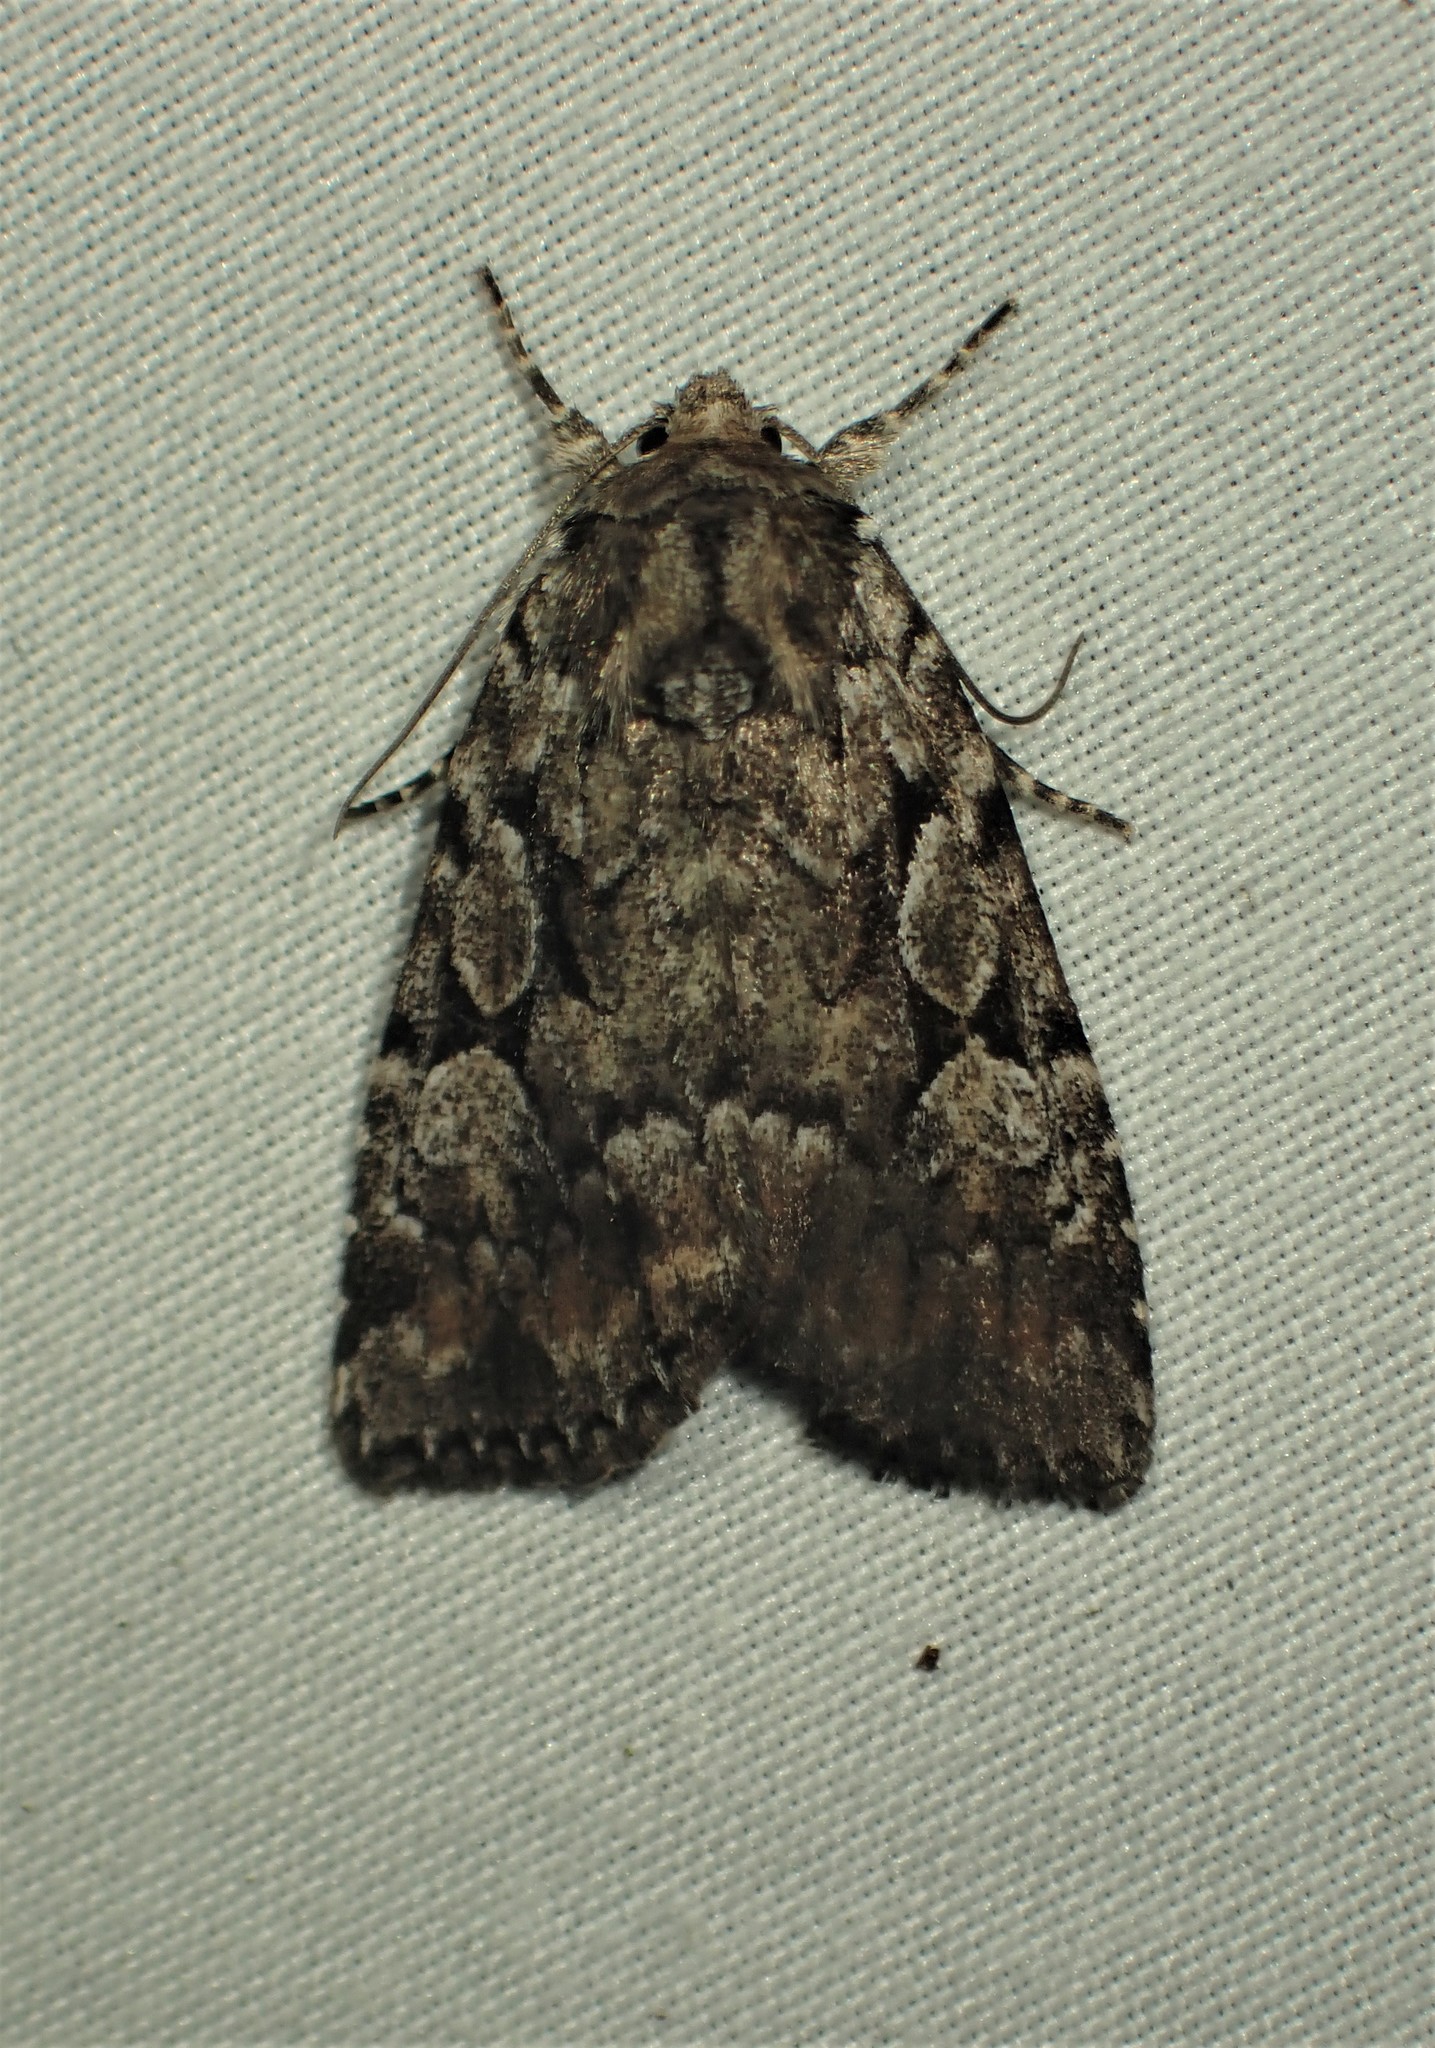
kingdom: Animalia
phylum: Arthropoda
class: Insecta
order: Lepidoptera
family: Noctuidae
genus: Aplectoides
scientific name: Aplectoides condita
